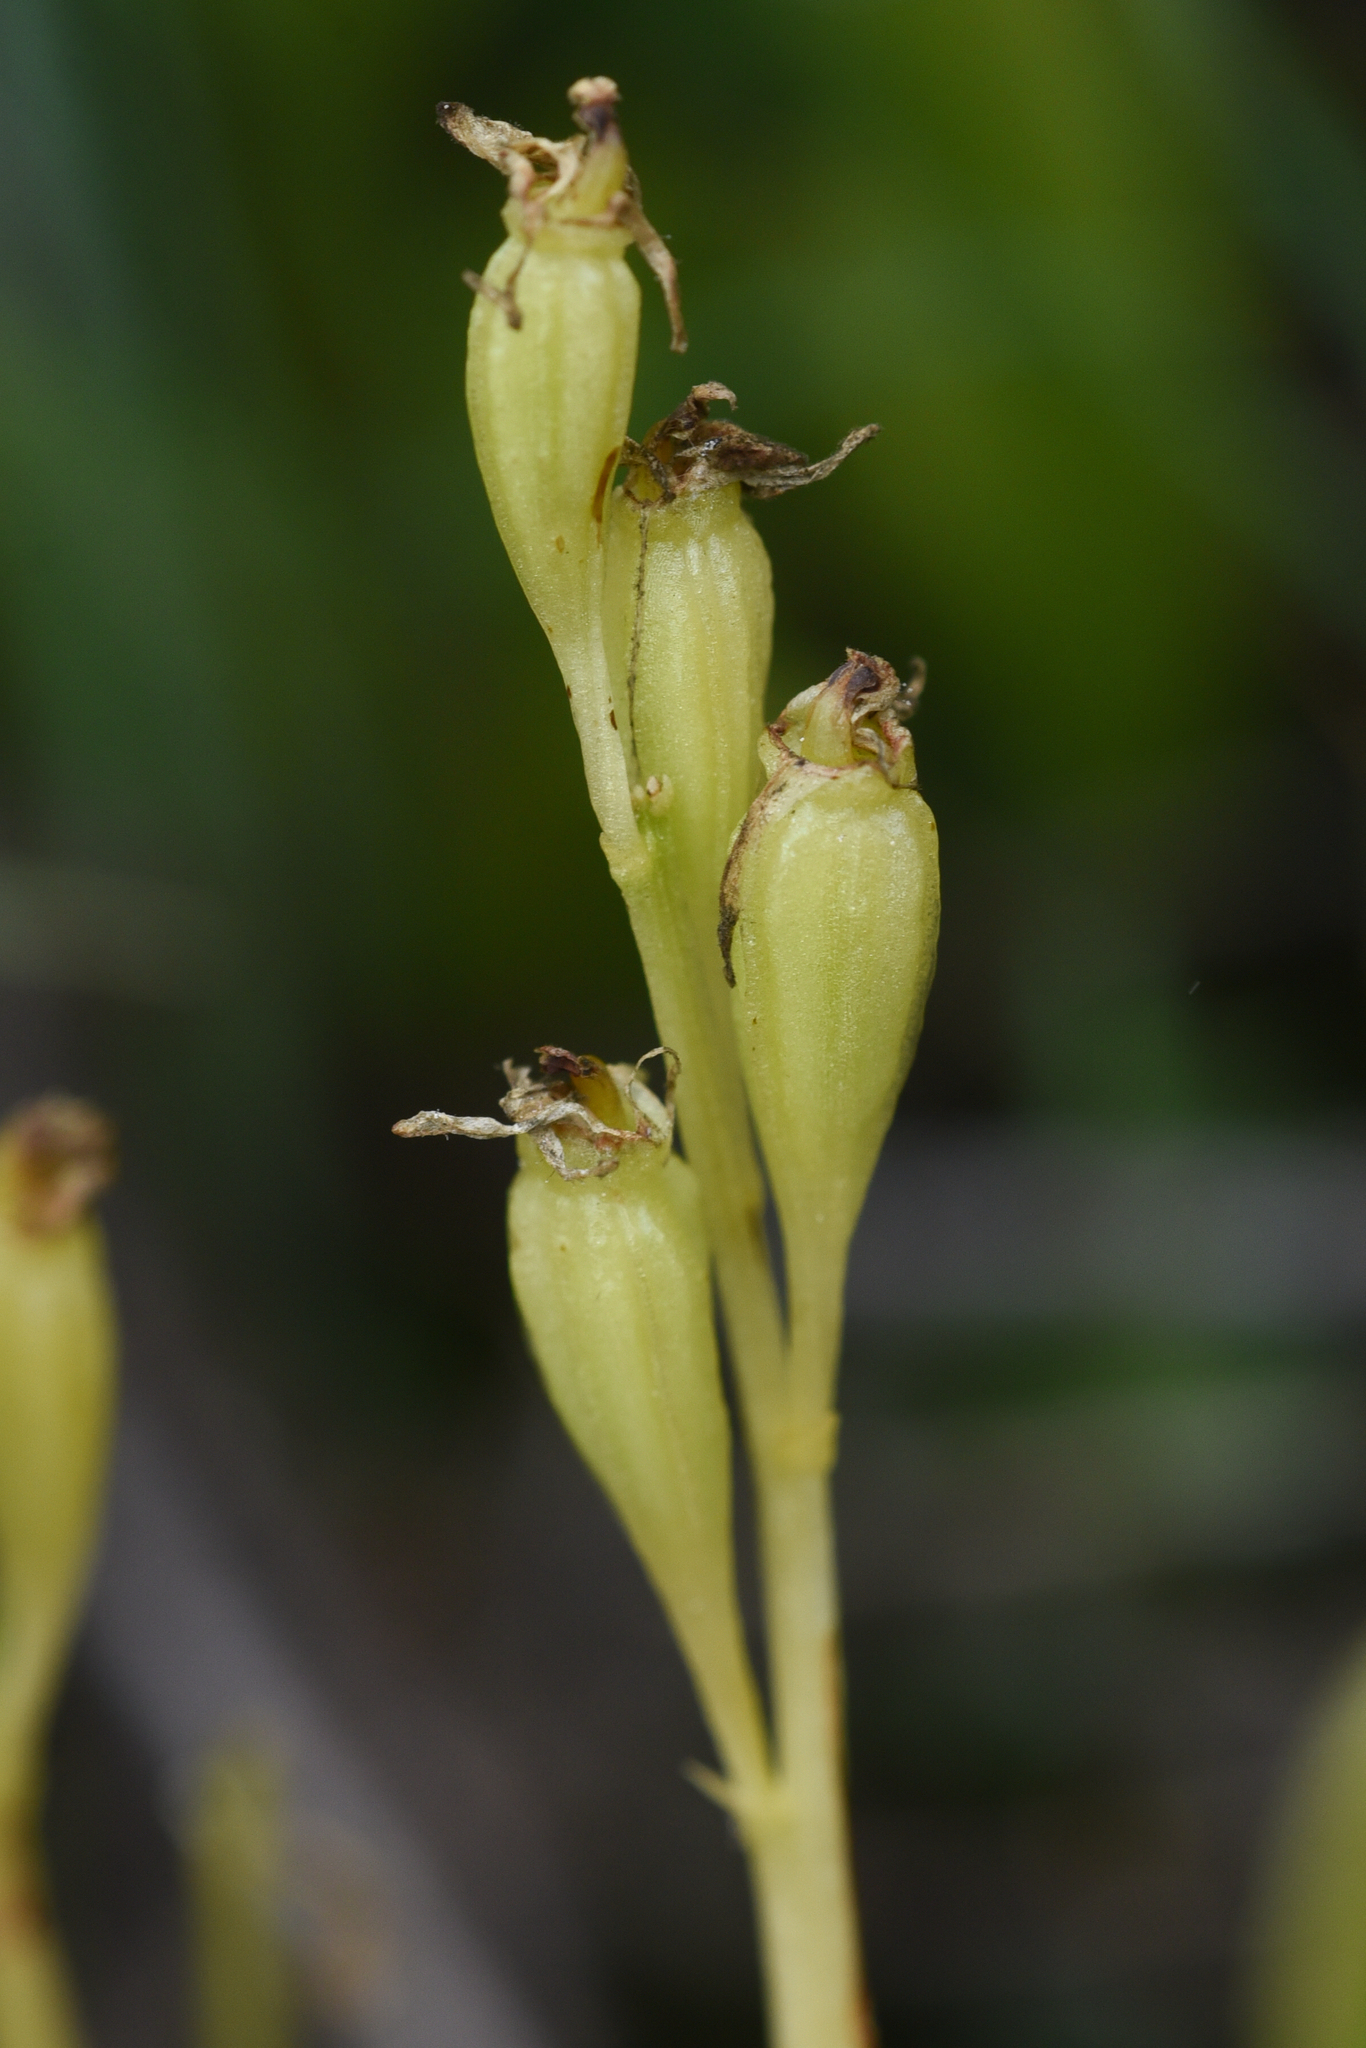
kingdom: Animalia
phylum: Arthropoda
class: Insecta
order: Coleoptera
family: Curculionidae
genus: Liparis
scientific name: Liparis loeselii
